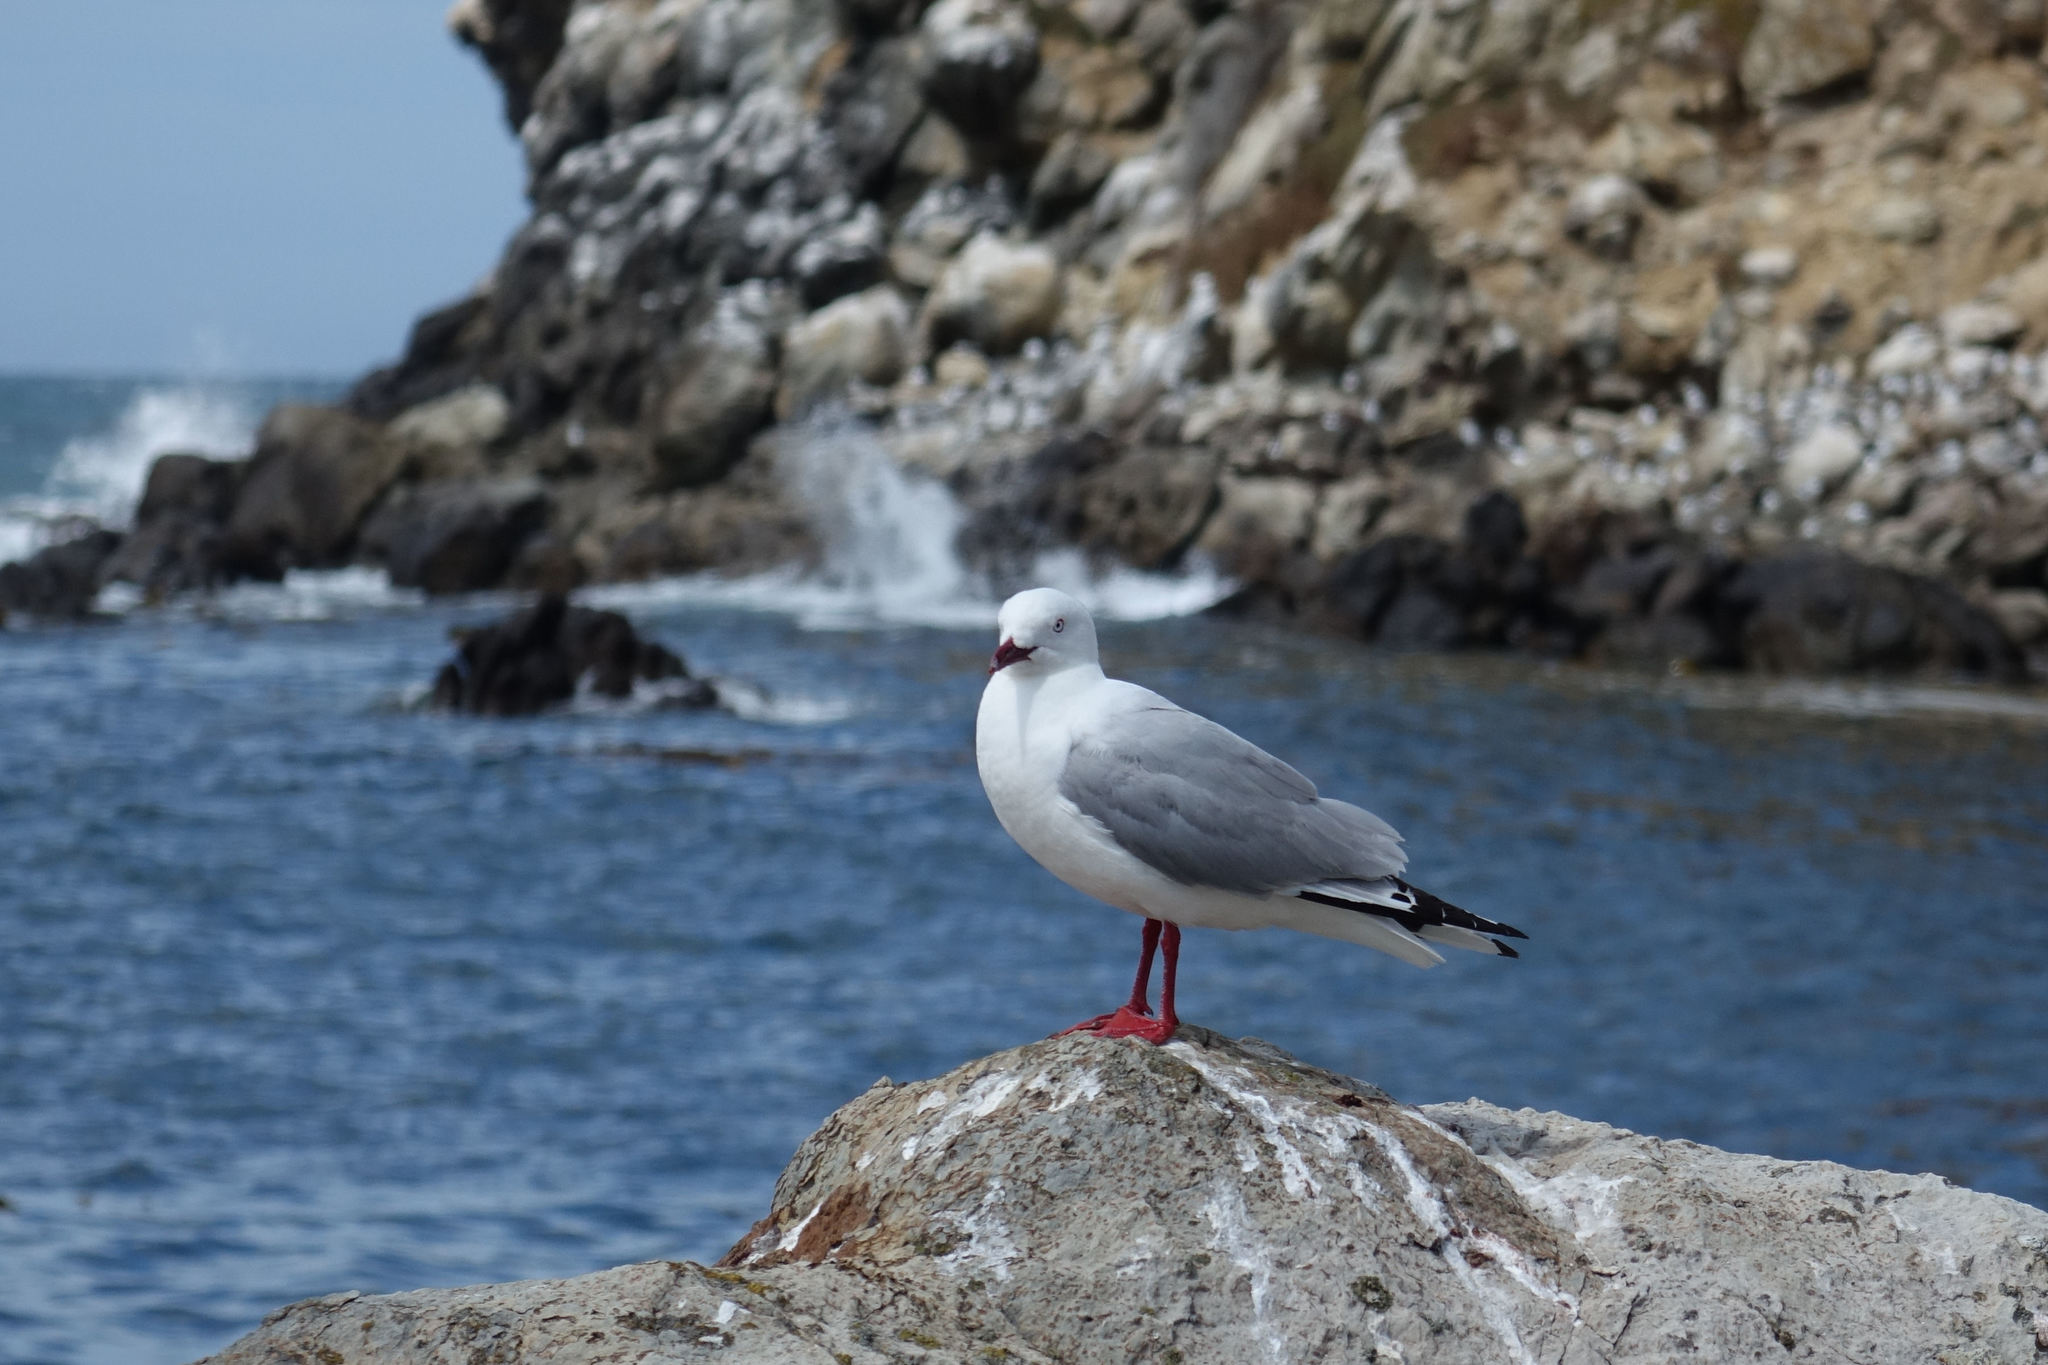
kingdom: Animalia
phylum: Chordata
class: Aves
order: Charadriiformes
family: Laridae
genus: Chroicocephalus
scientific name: Chroicocephalus novaehollandiae
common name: Silver gull
